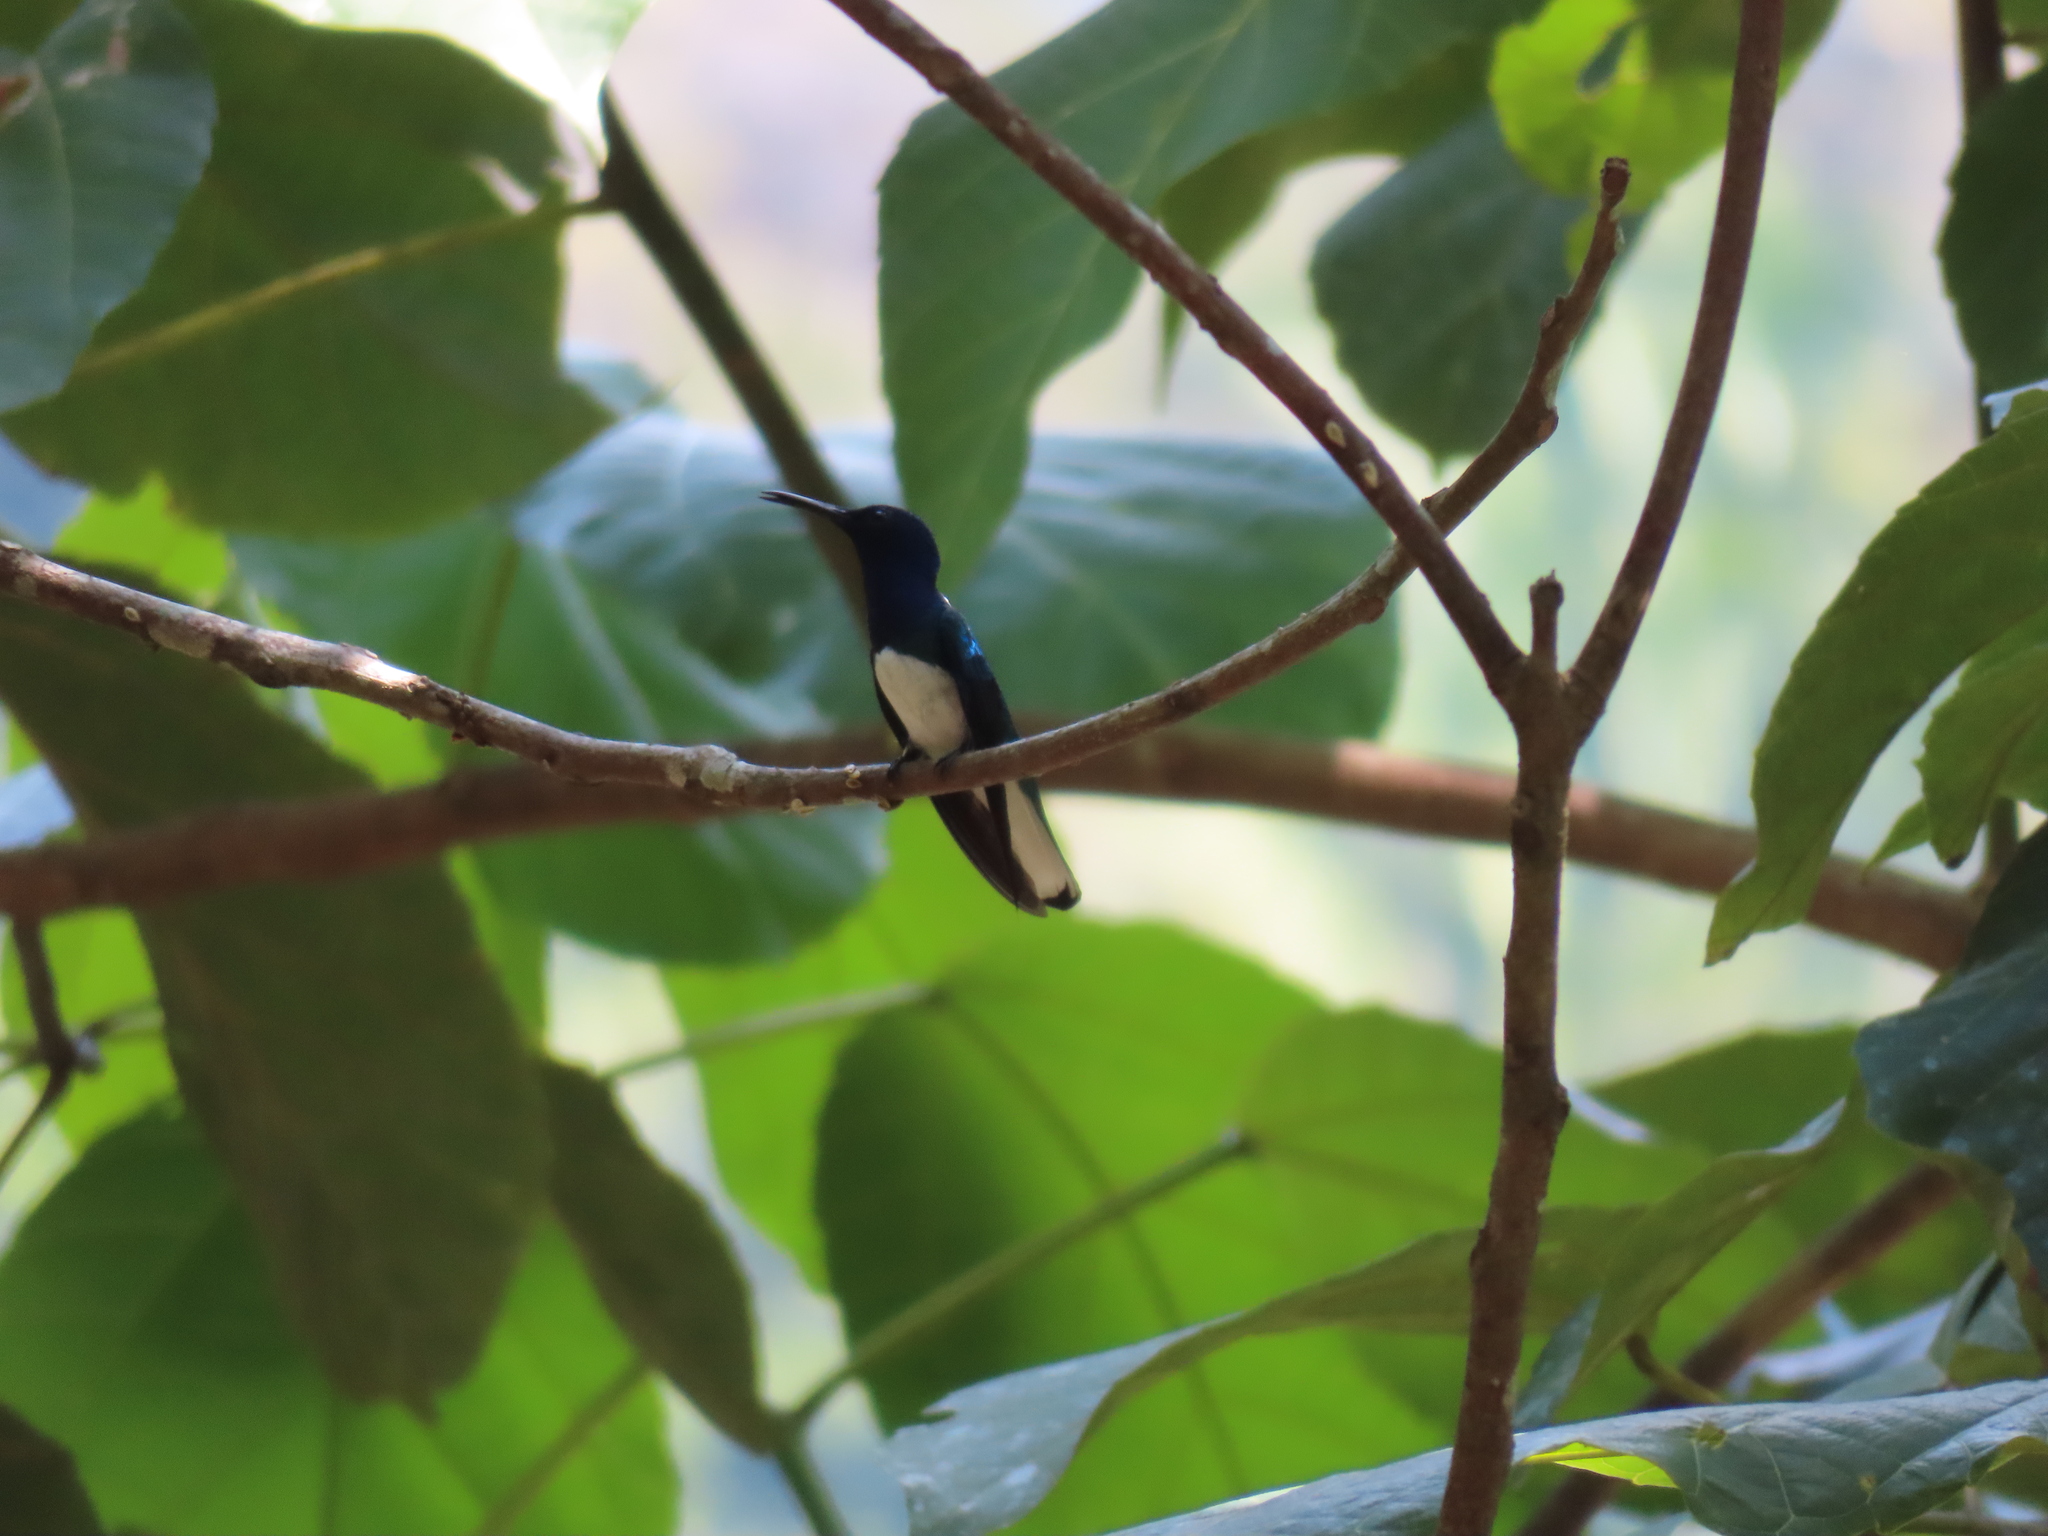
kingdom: Animalia
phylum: Chordata
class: Aves
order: Apodiformes
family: Trochilidae
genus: Florisuga
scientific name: Florisuga mellivora
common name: White-necked jacobin
